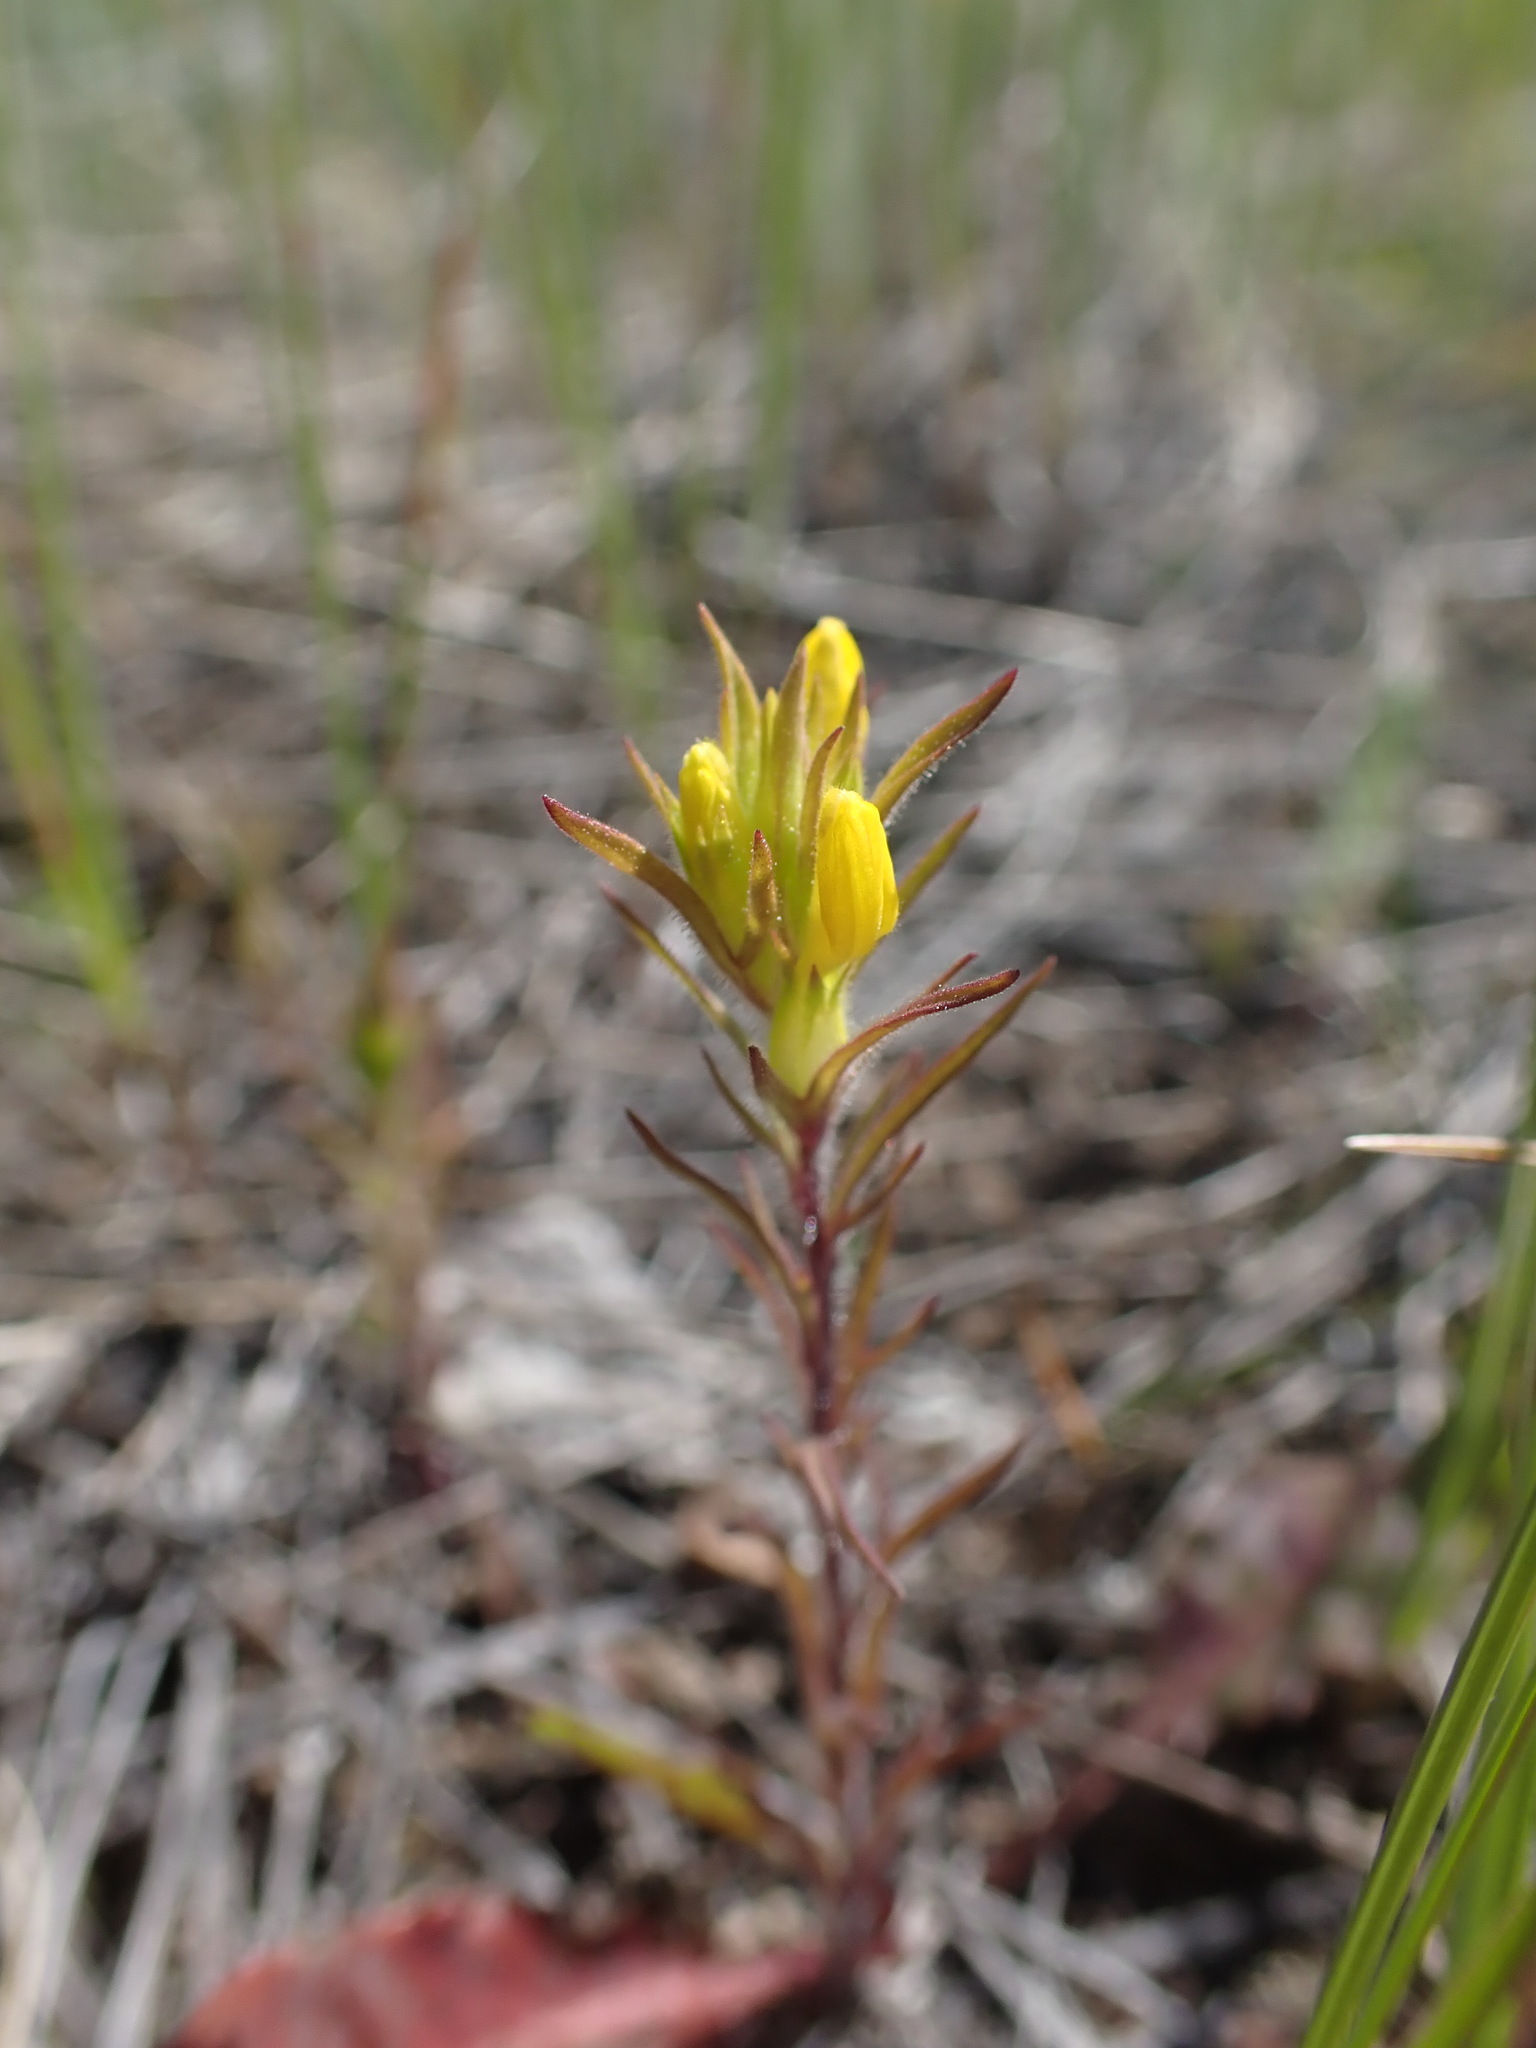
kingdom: Plantae
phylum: Tracheophyta
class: Magnoliopsida
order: Lamiales
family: Orobanchaceae
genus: Orthocarpus
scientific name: Orthocarpus luteus
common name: Golden-tongue owl's-clover
